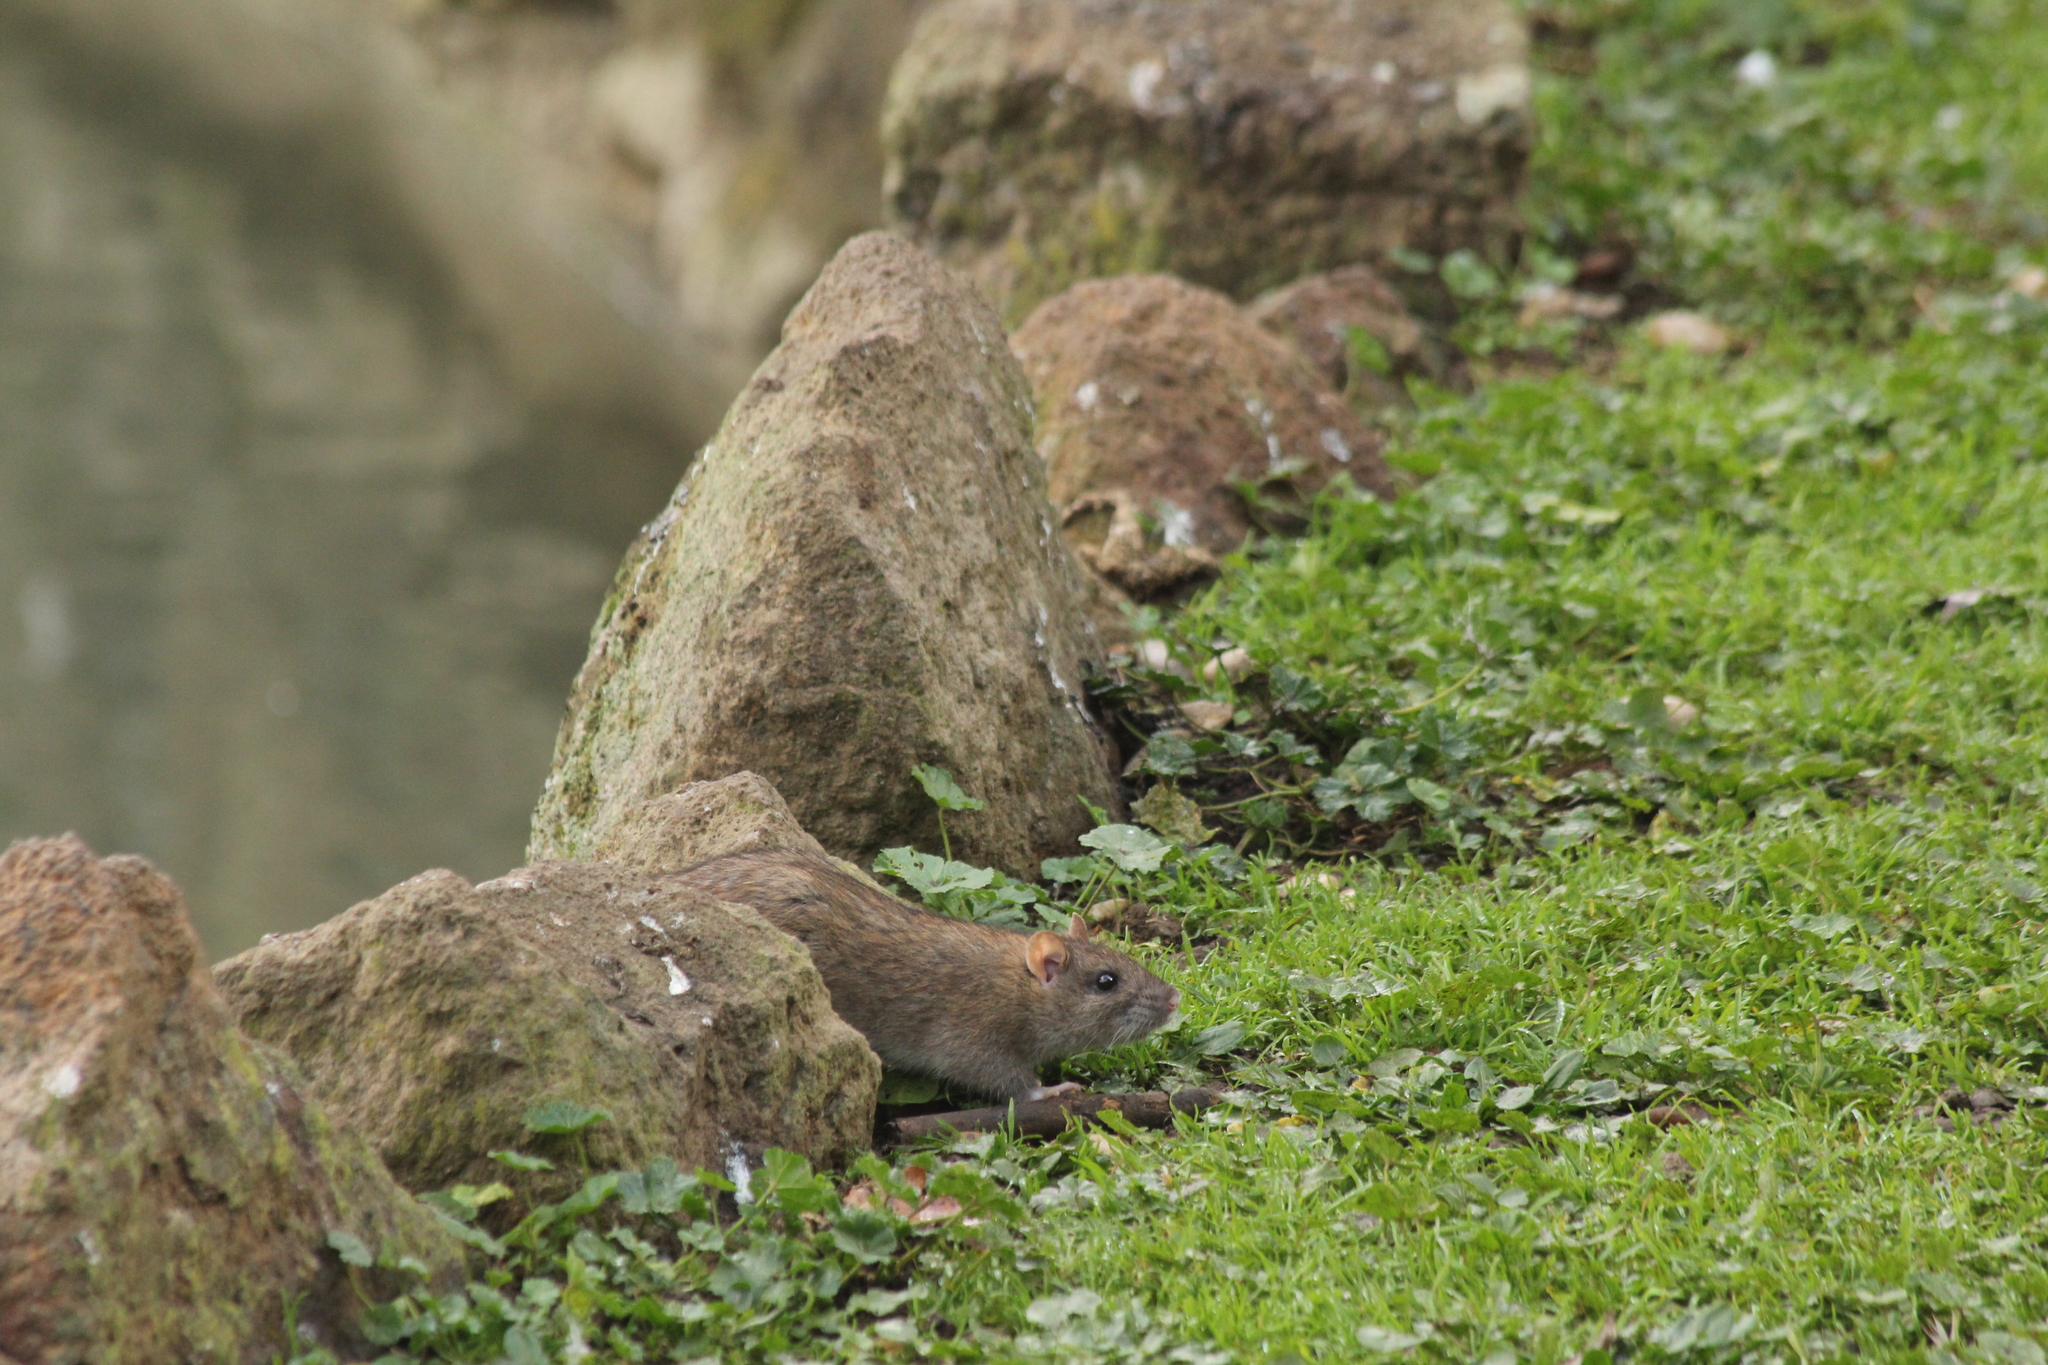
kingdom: Animalia
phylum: Chordata
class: Mammalia
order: Rodentia
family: Muridae
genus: Rattus
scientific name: Rattus norvegicus
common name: Brown rat
